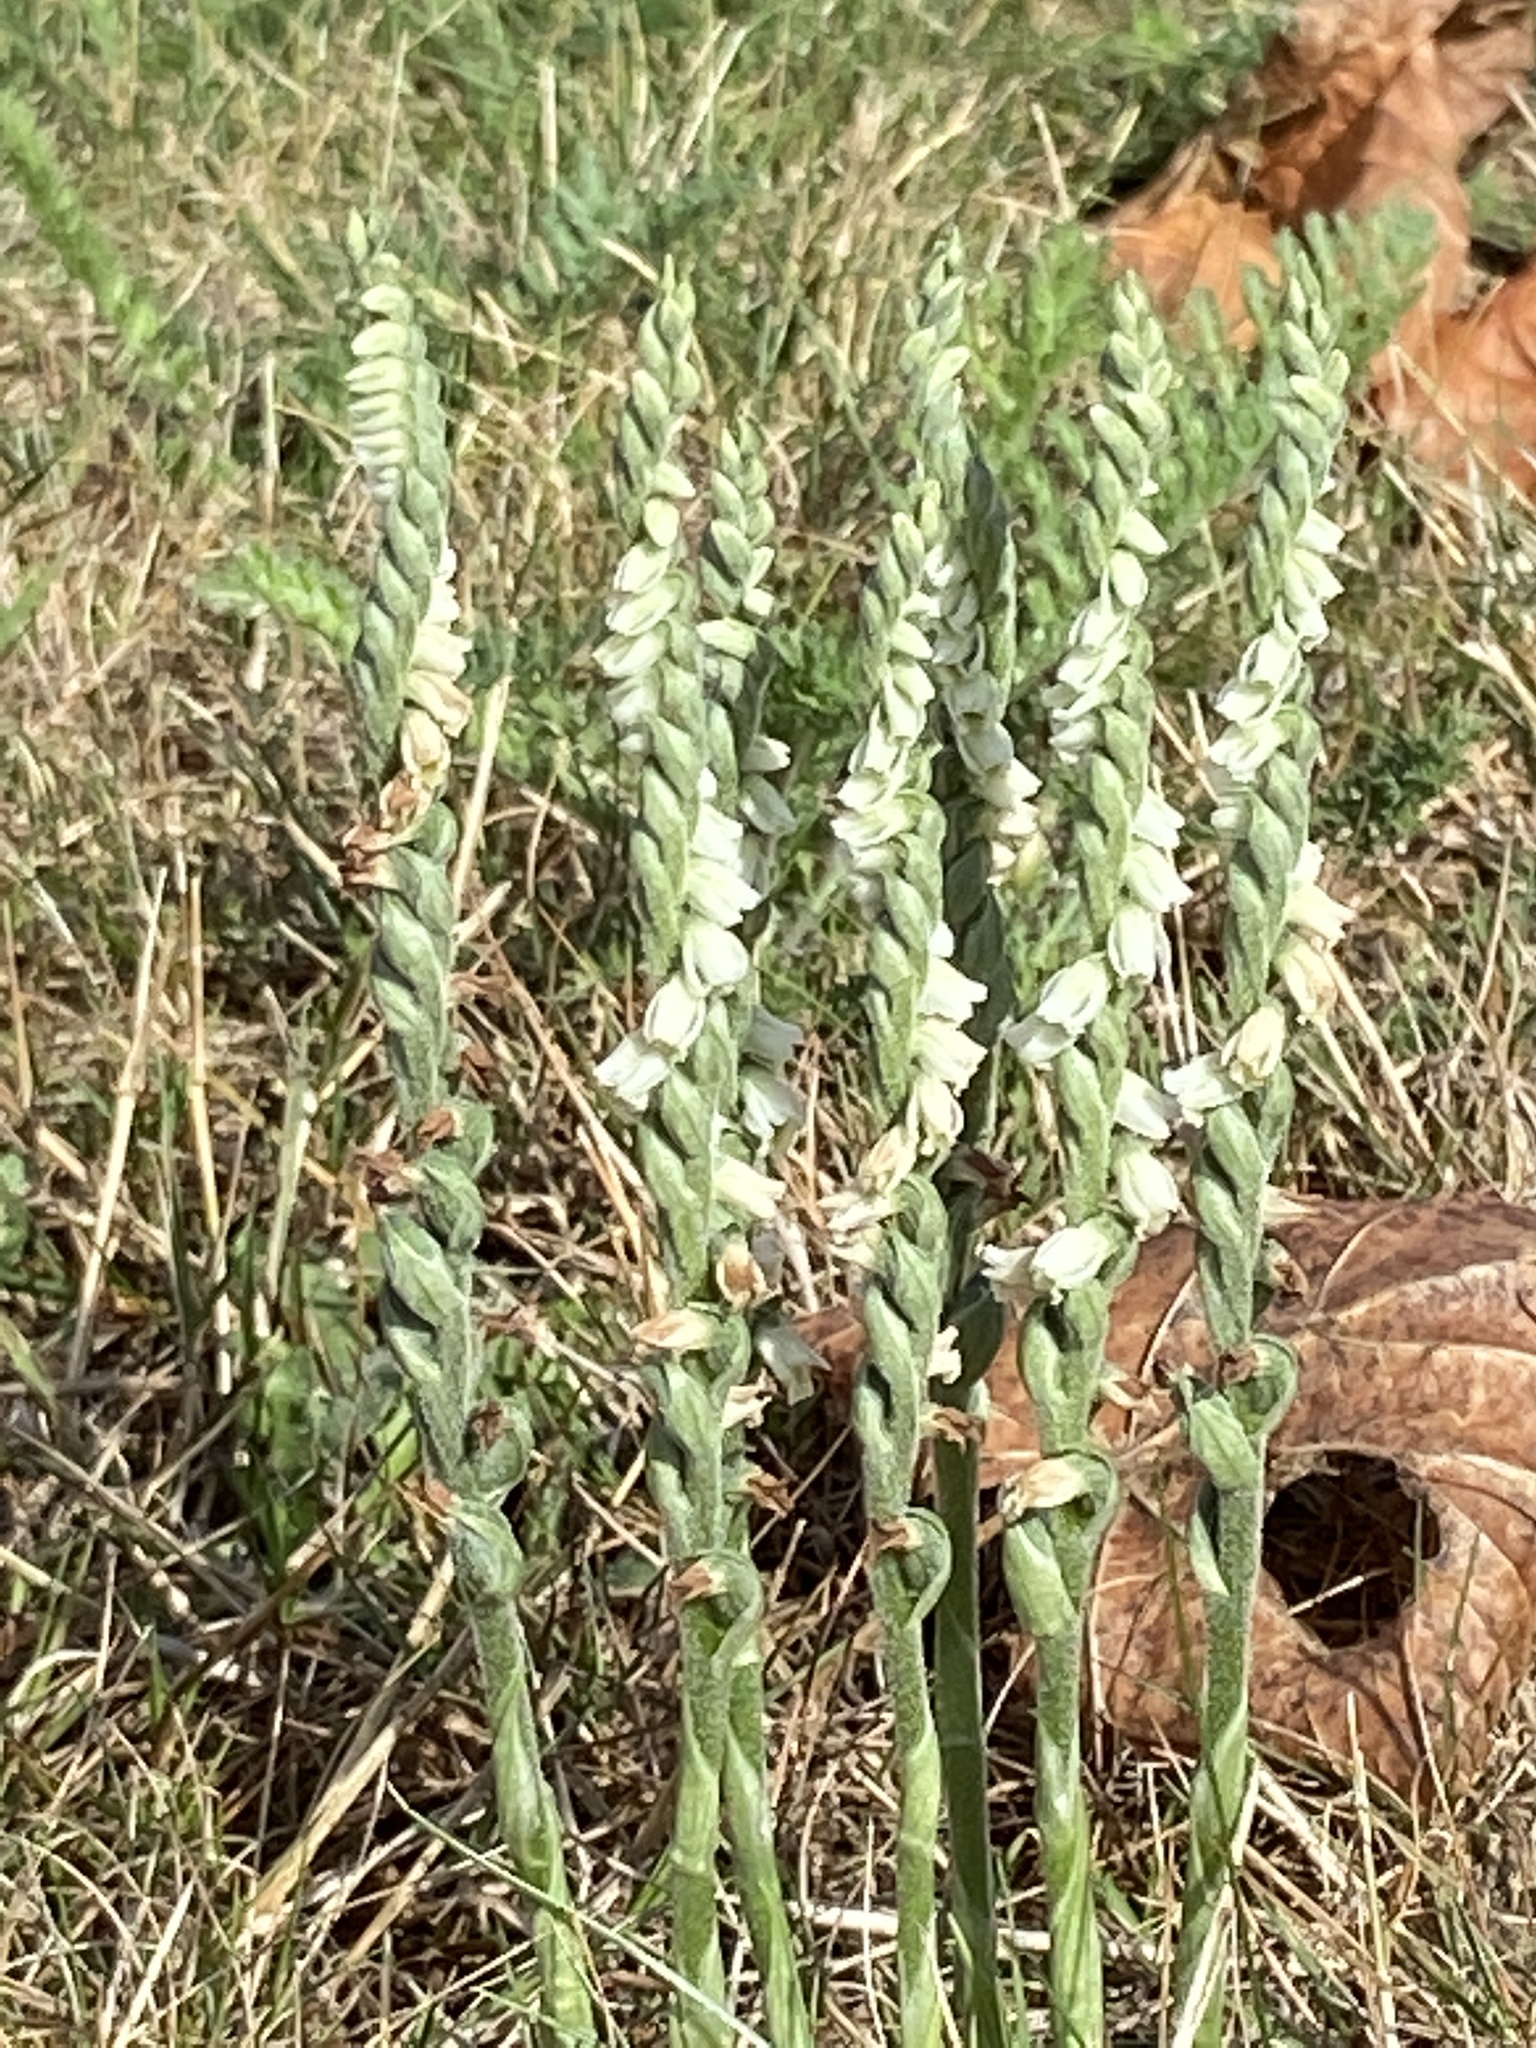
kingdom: Plantae
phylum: Tracheophyta
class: Liliopsida
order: Asparagales
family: Orchidaceae
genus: Spiranthes
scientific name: Spiranthes spiralis
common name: Autumn lady's-tresses
